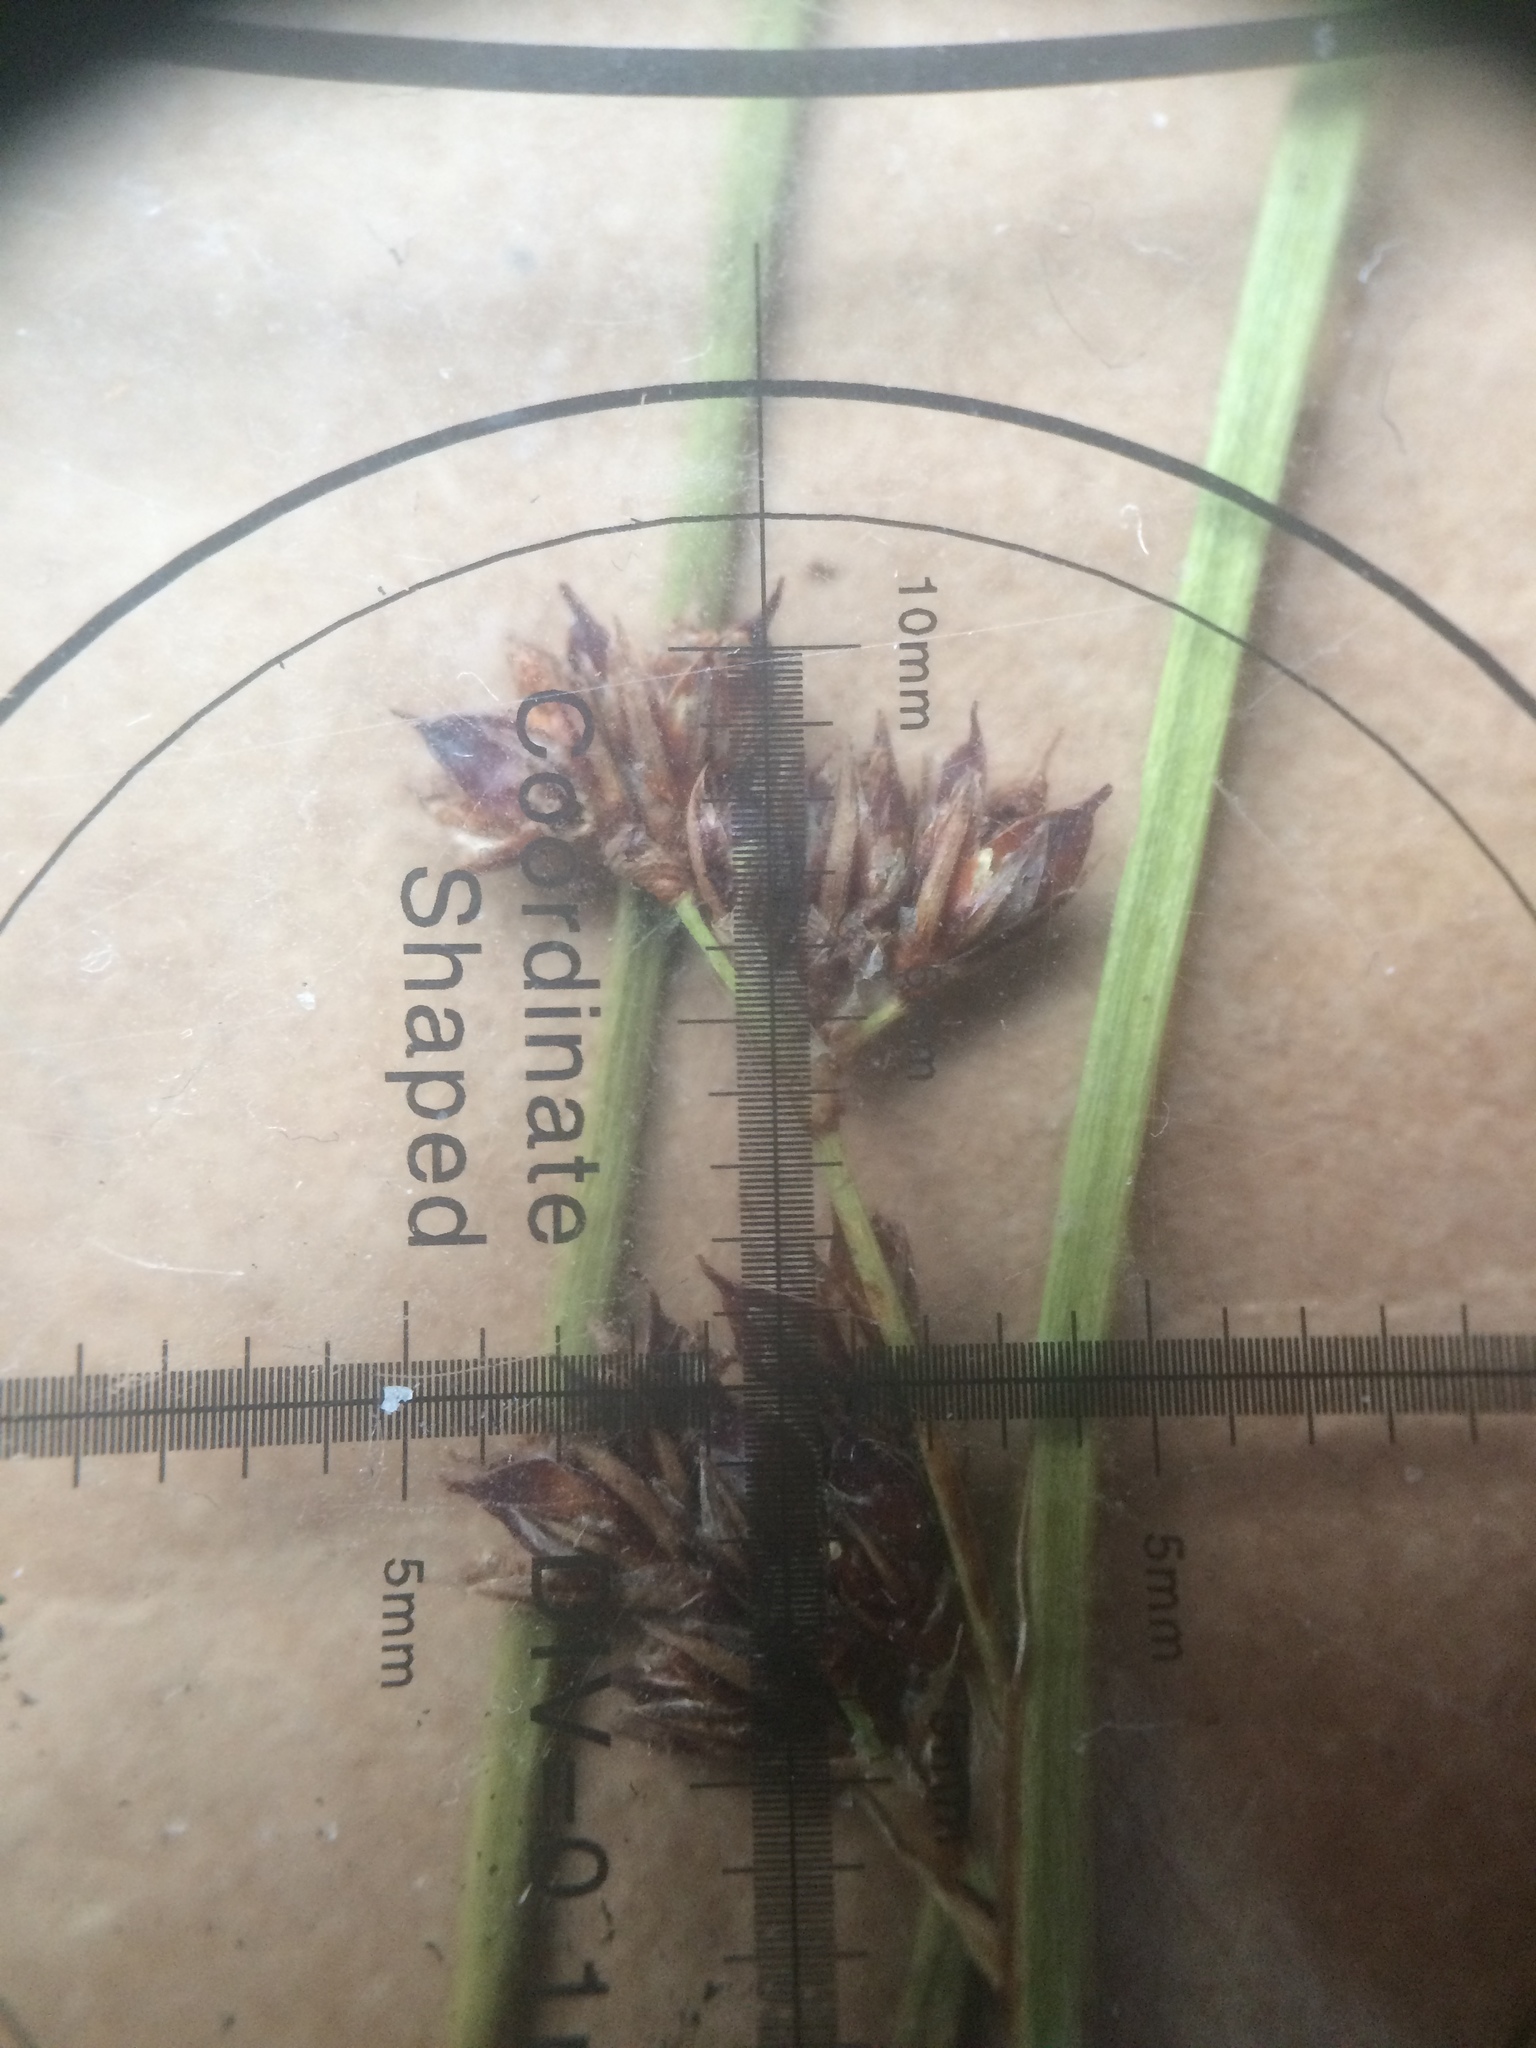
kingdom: Plantae
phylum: Tracheophyta
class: Liliopsida
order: Poales
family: Juncaceae
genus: Juncus
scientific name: Juncus balticus
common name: Baltic rush
